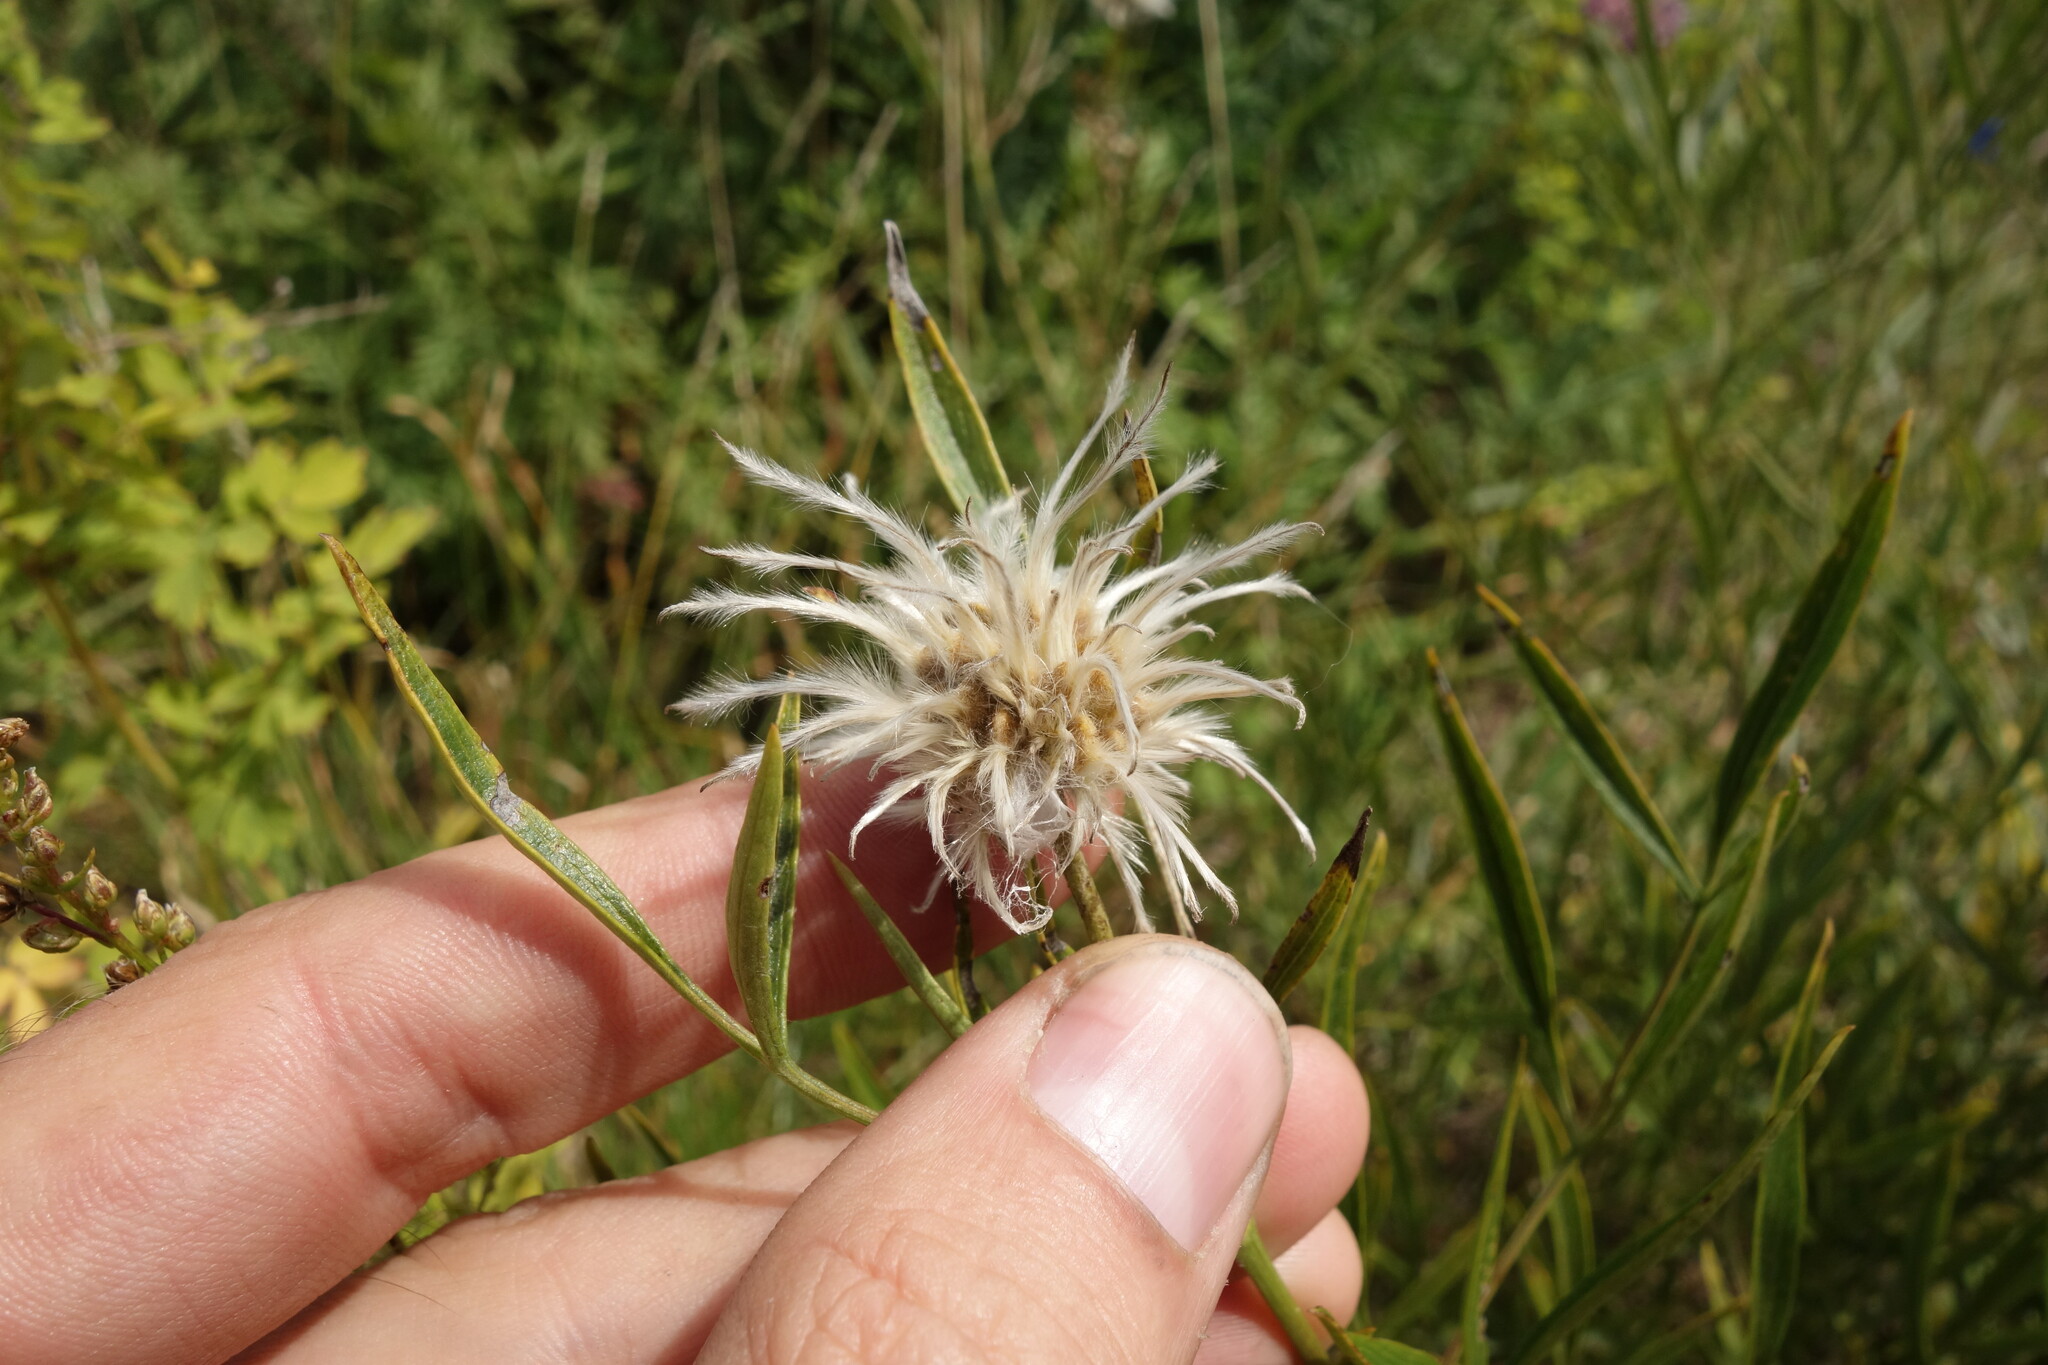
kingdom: Plantae
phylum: Tracheophyta
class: Magnoliopsida
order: Ranunculales
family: Ranunculaceae
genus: Clematis
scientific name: Clematis hexapetala
